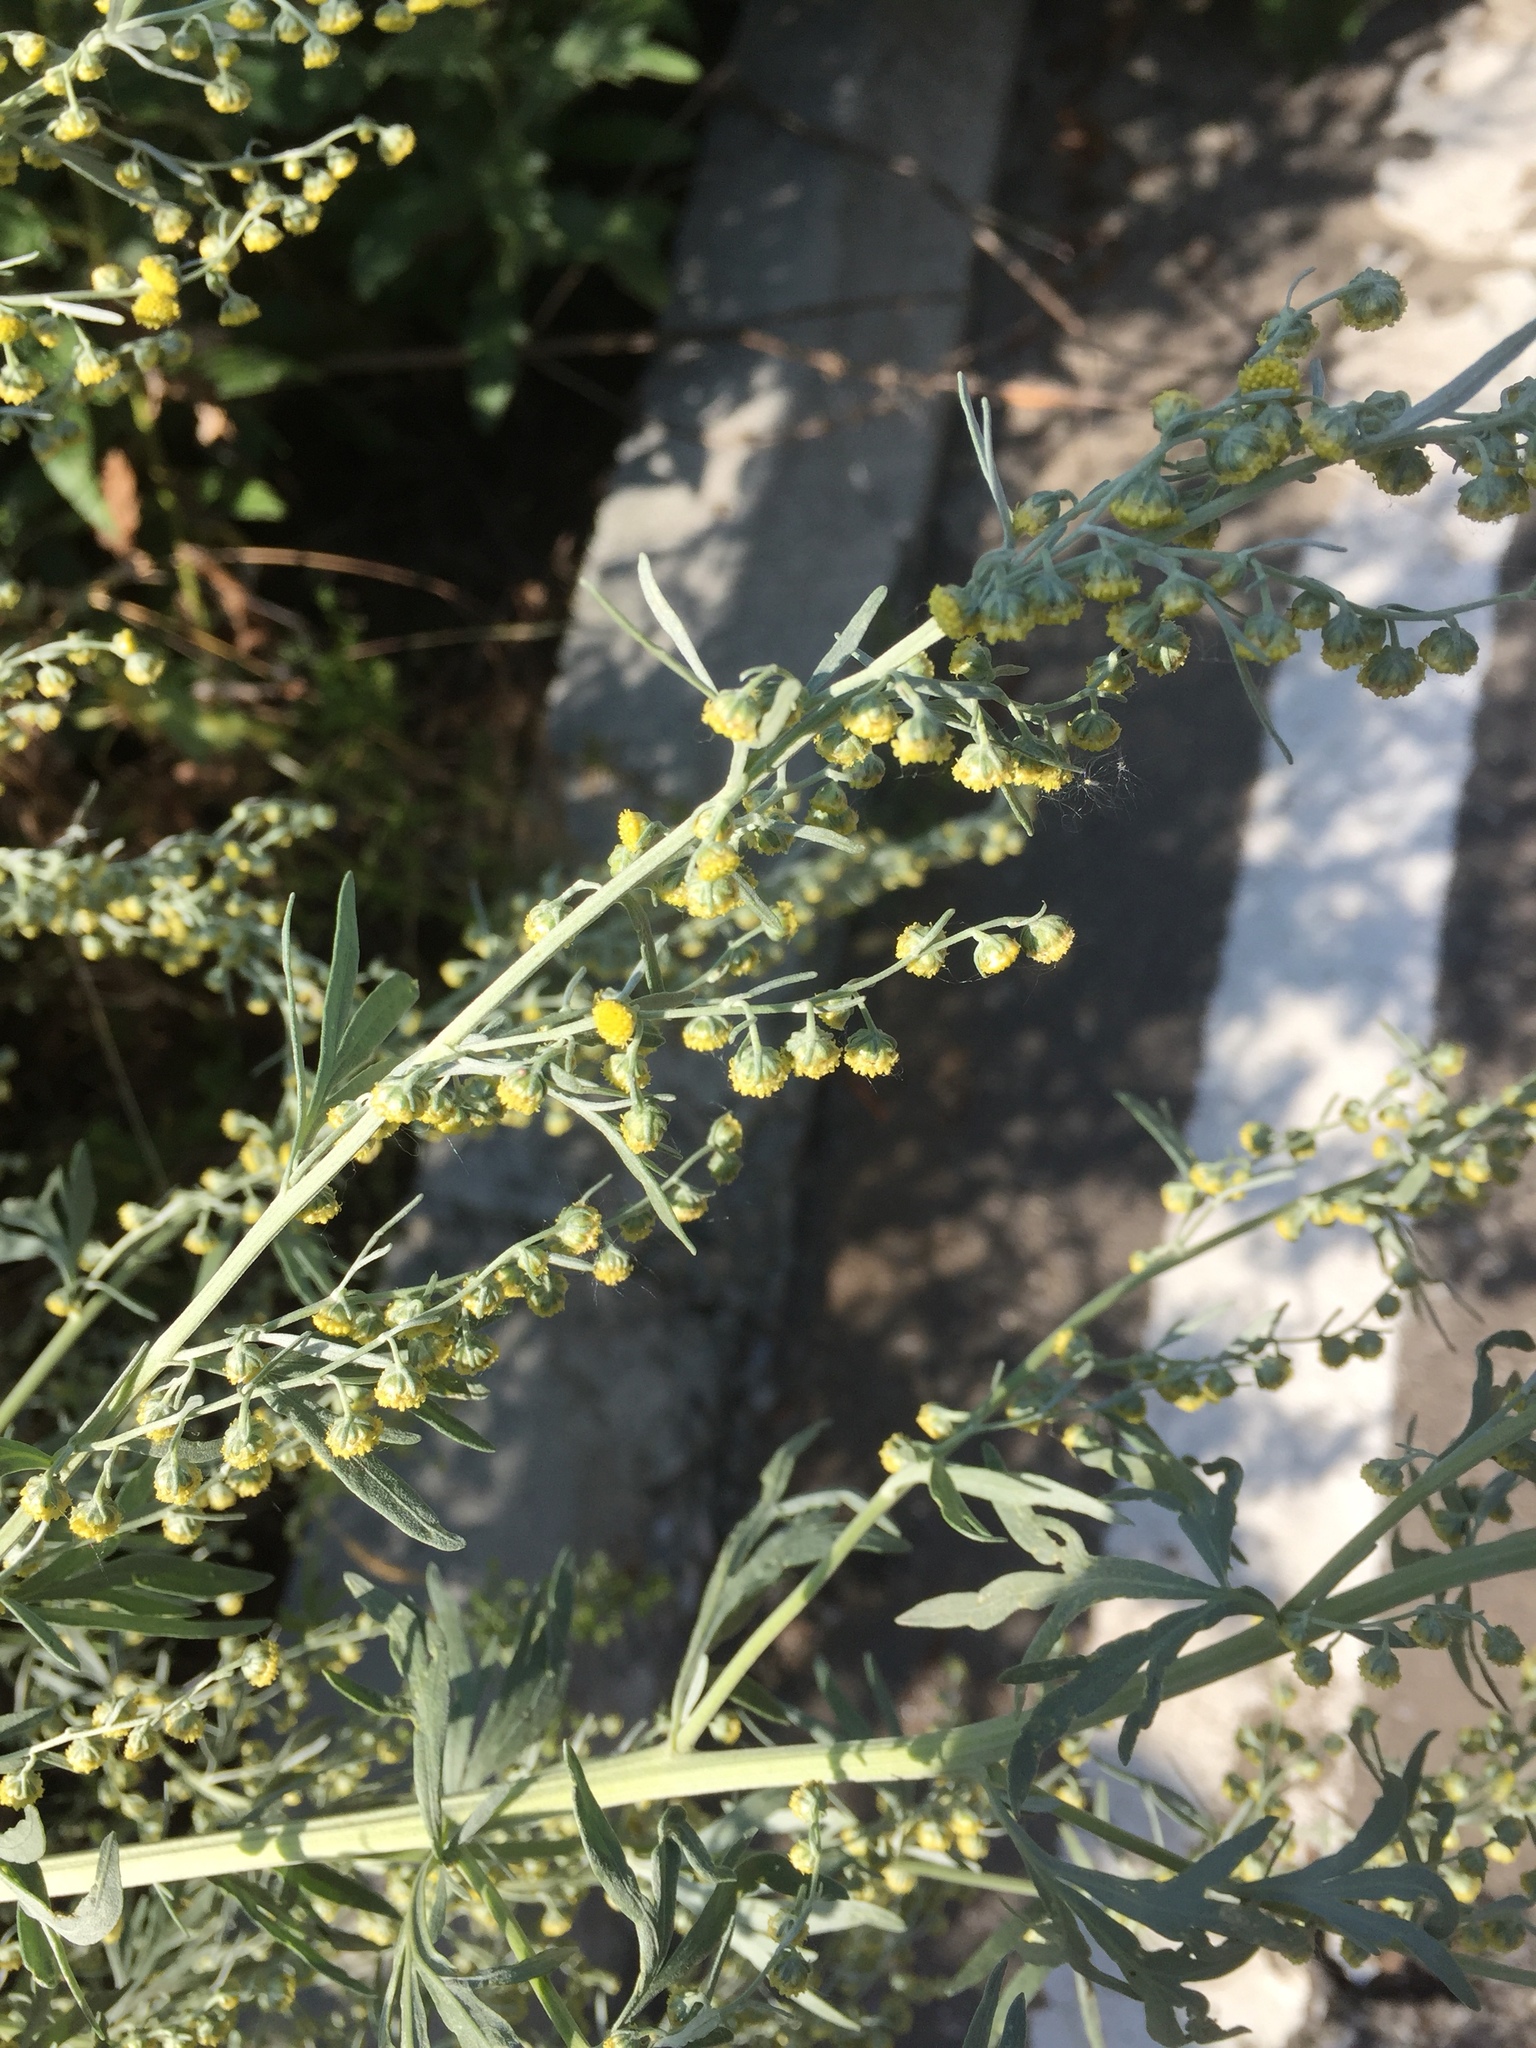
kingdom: Plantae
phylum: Tracheophyta
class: Magnoliopsida
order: Asterales
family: Asteraceae
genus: Artemisia
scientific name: Artemisia absinthium
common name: Wormwood
